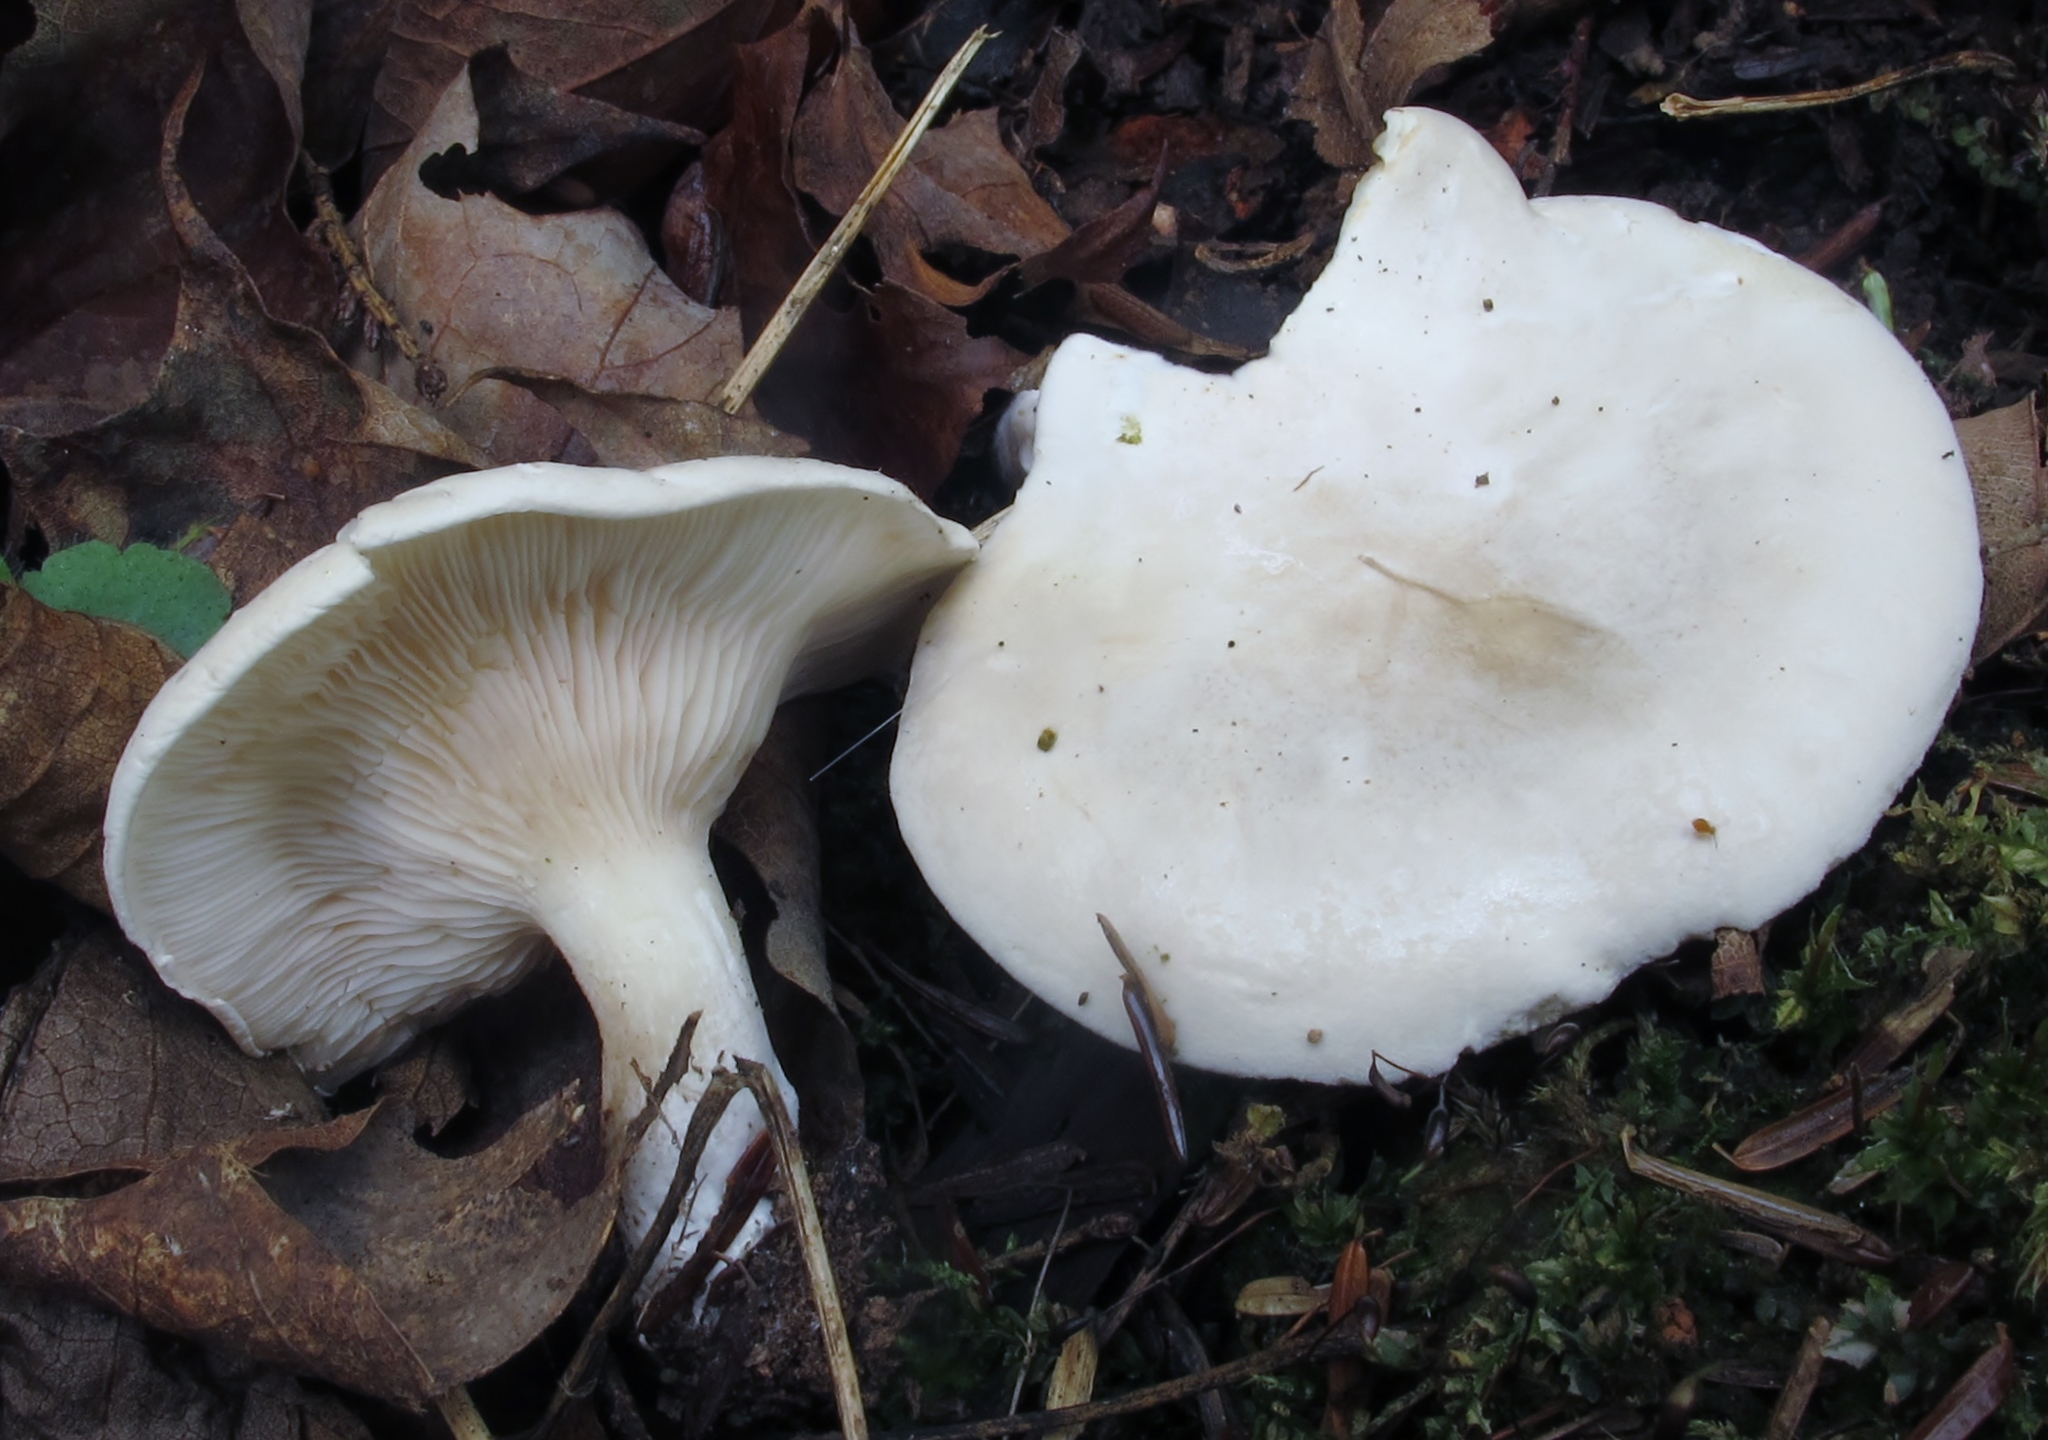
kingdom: Fungi
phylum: Basidiomycota
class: Agaricomycetes
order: Agaricales
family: Entolomataceae
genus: Clitopilus
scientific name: Clitopilus prunulus
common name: The miller
